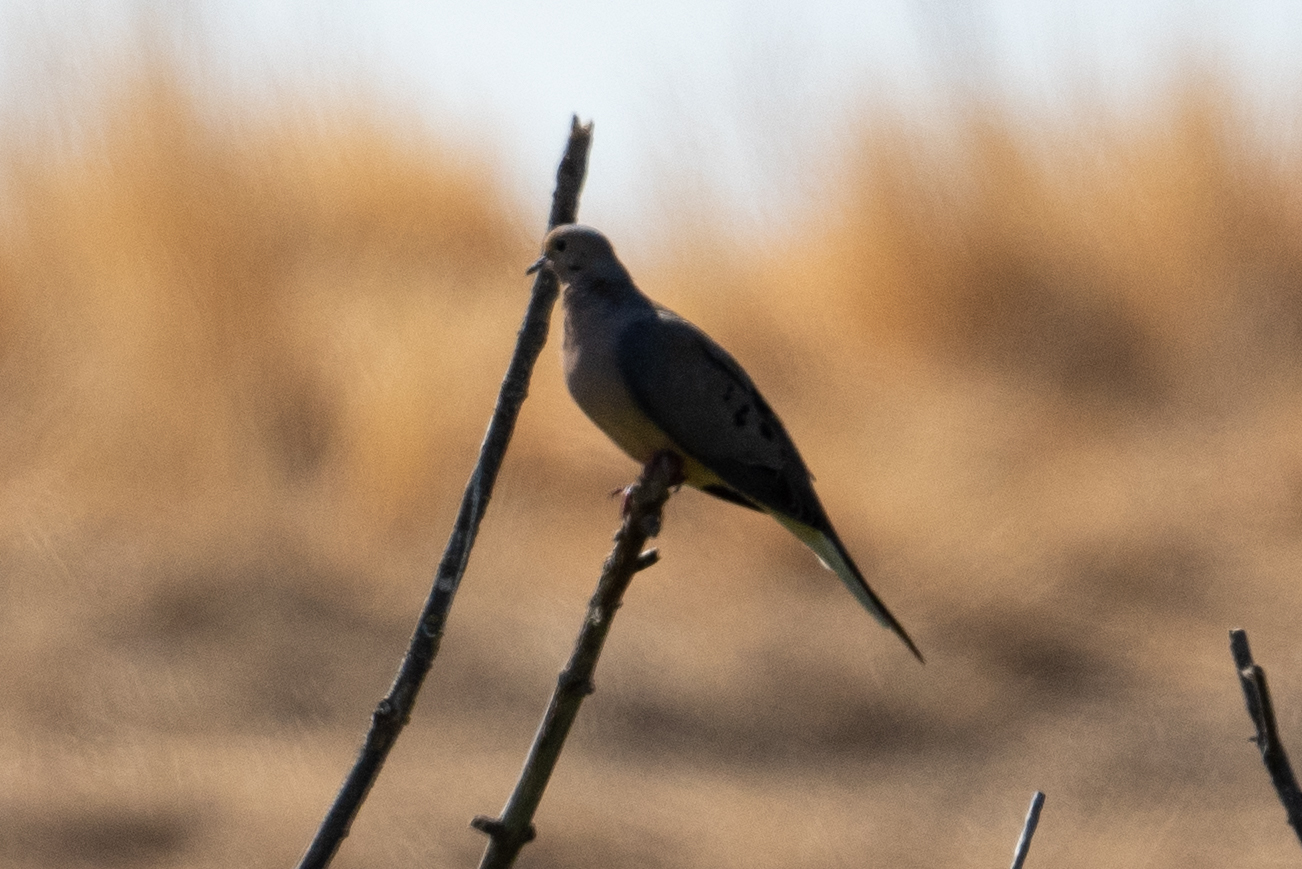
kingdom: Animalia
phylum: Chordata
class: Aves
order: Columbiformes
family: Columbidae
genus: Zenaida
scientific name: Zenaida macroura
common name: Mourning dove
